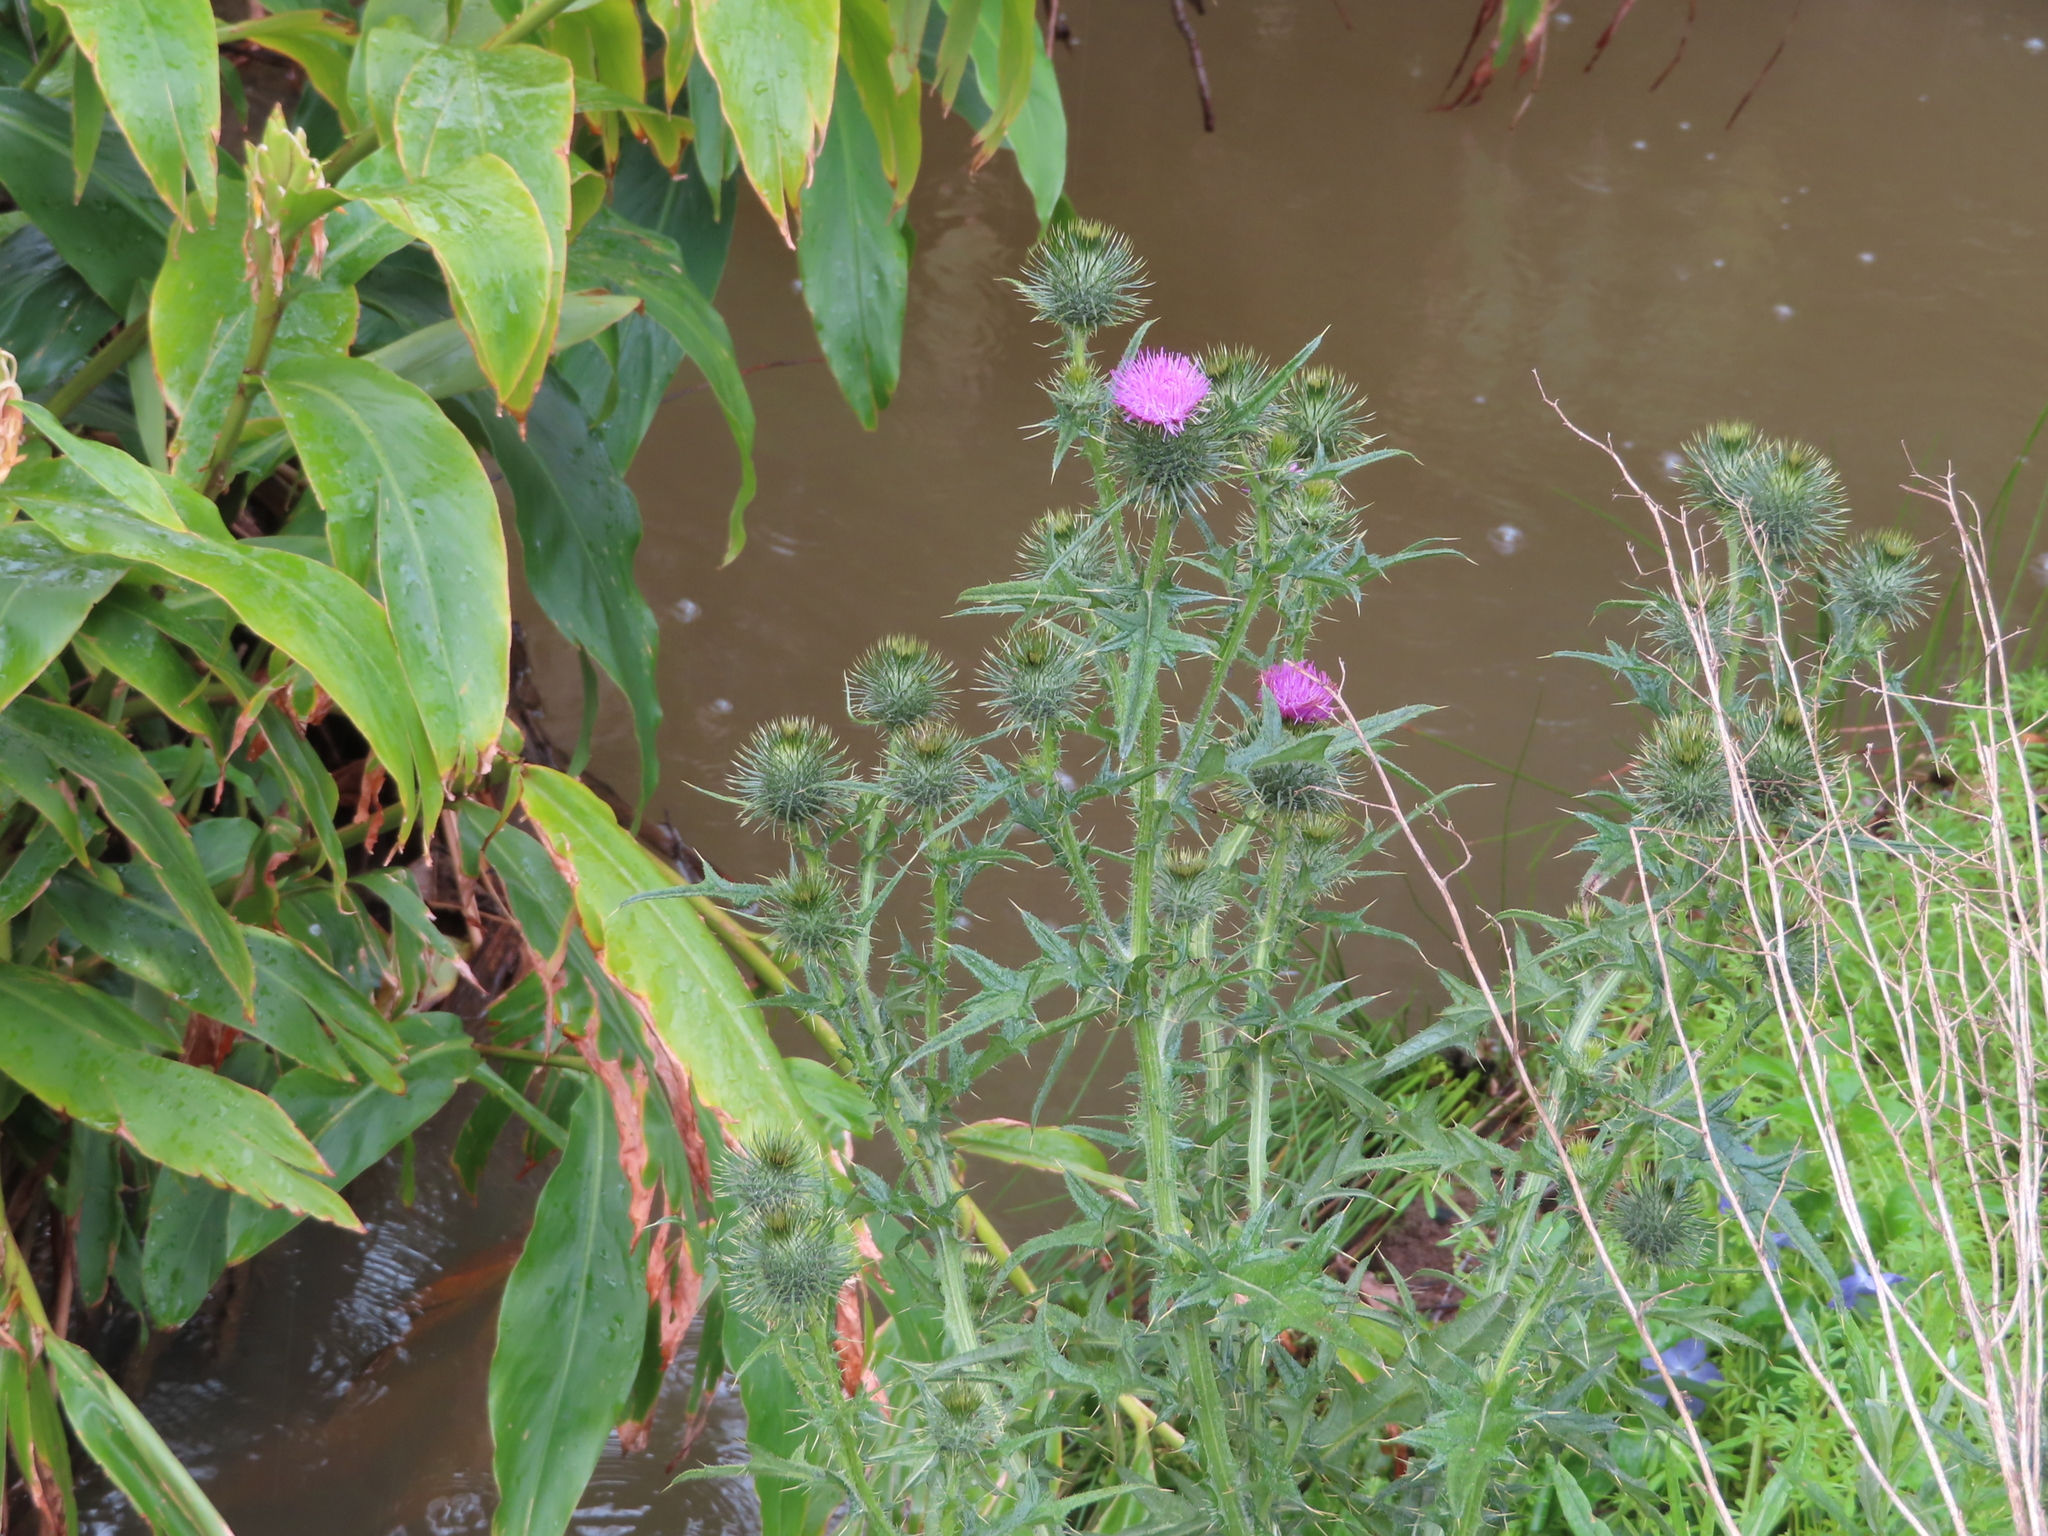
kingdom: Plantae
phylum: Tracheophyta
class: Magnoliopsida
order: Asterales
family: Asteraceae
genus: Cirsium
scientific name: Cirsium vulgare
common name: Bull thistle
